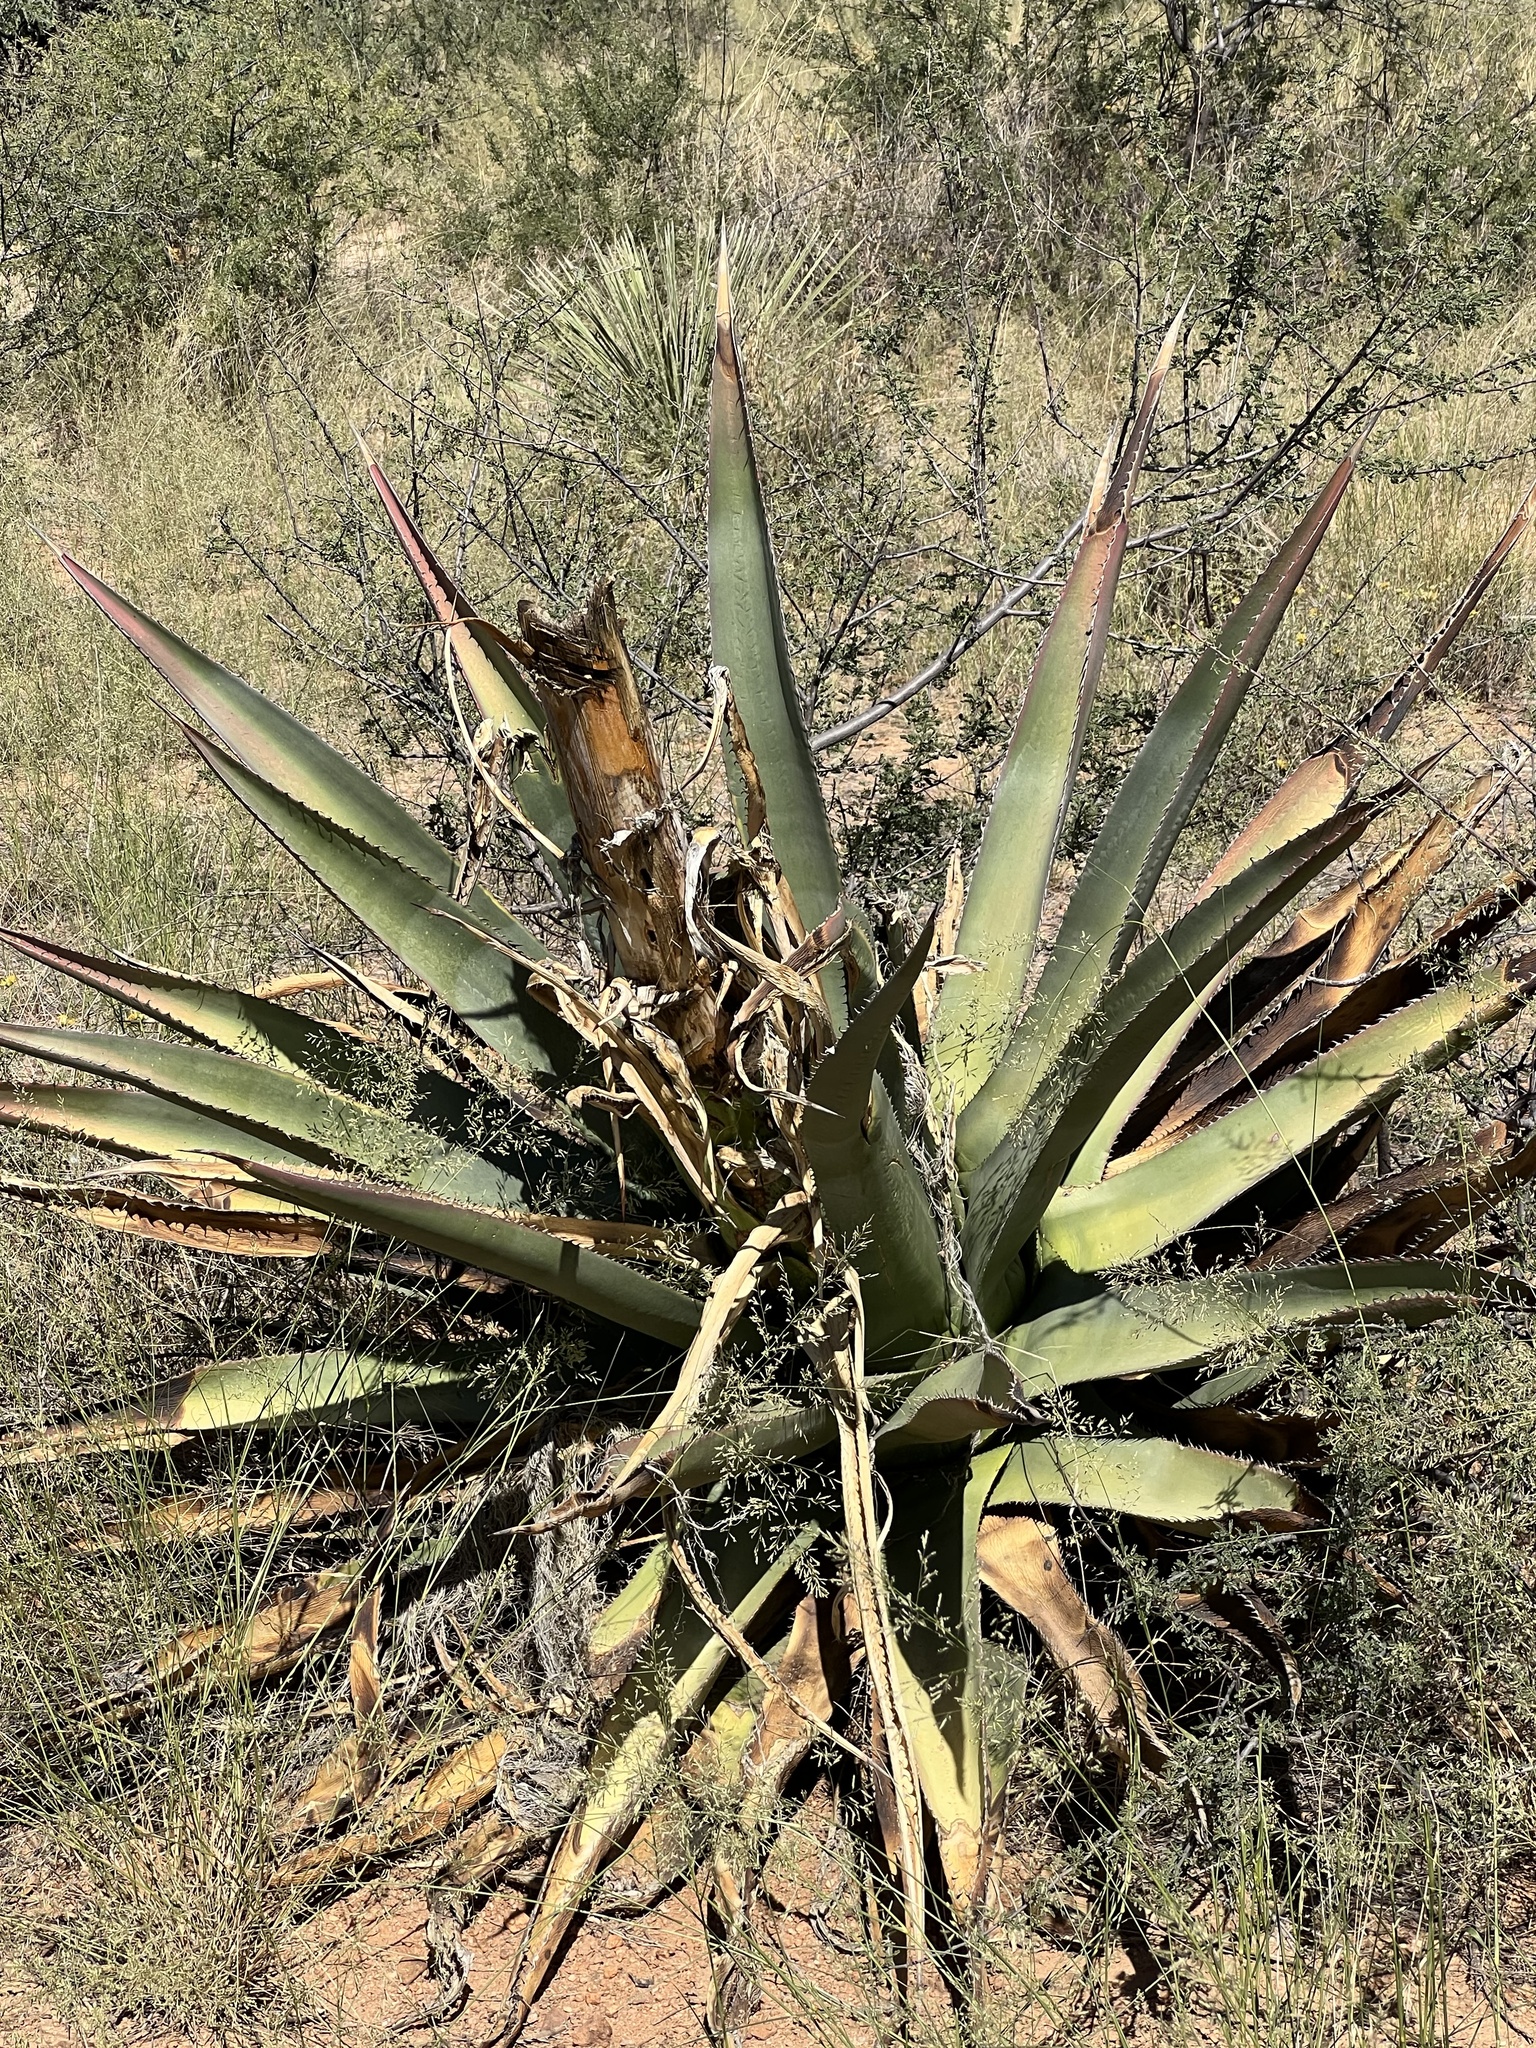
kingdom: Plantae
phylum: Tracheophyta
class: Liliopsida
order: Asparagales
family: Asparagaceae
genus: Agave
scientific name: Agave palmeri
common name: Palmer agave
